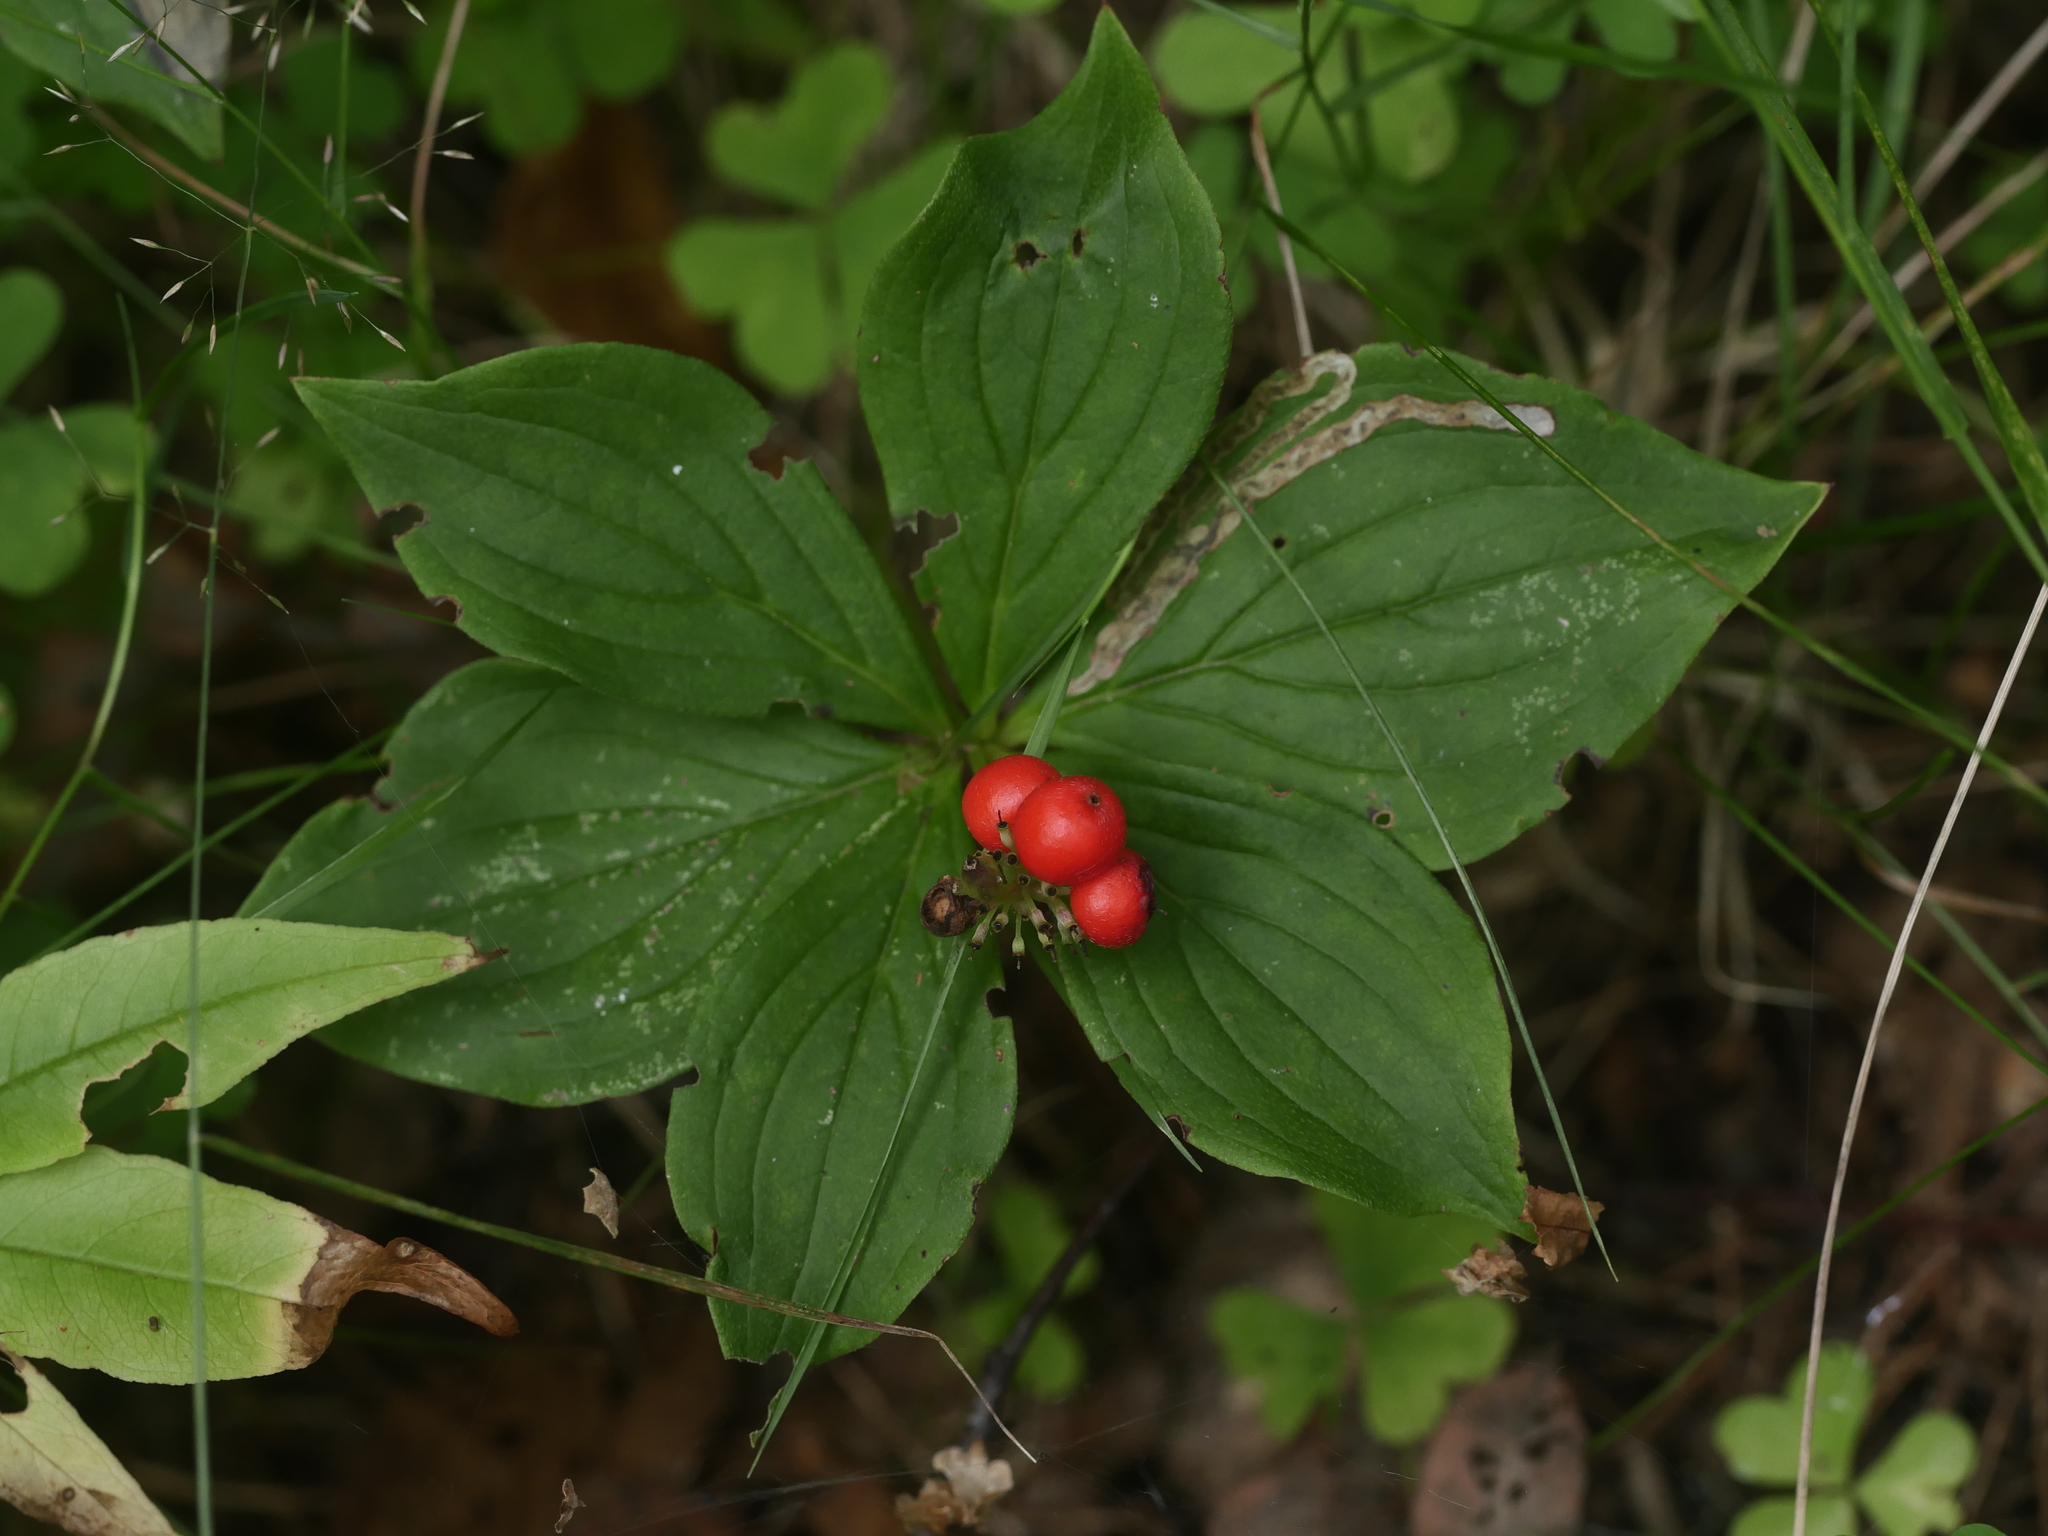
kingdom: Plantae
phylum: Tracheophyta
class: Magnoliopsida
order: Cornales
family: Cornaceae
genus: Cornus
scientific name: Cornus canadensis
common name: Creeping dogwood
